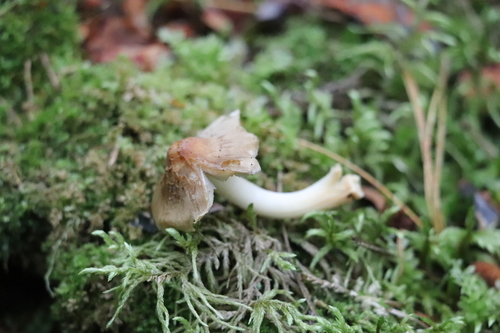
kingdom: Fungi
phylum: Basidiomycota
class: Agaricomycetes
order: Agaricales
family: Inocybaceae
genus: Inocybe
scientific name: Inocybe mixtilis
